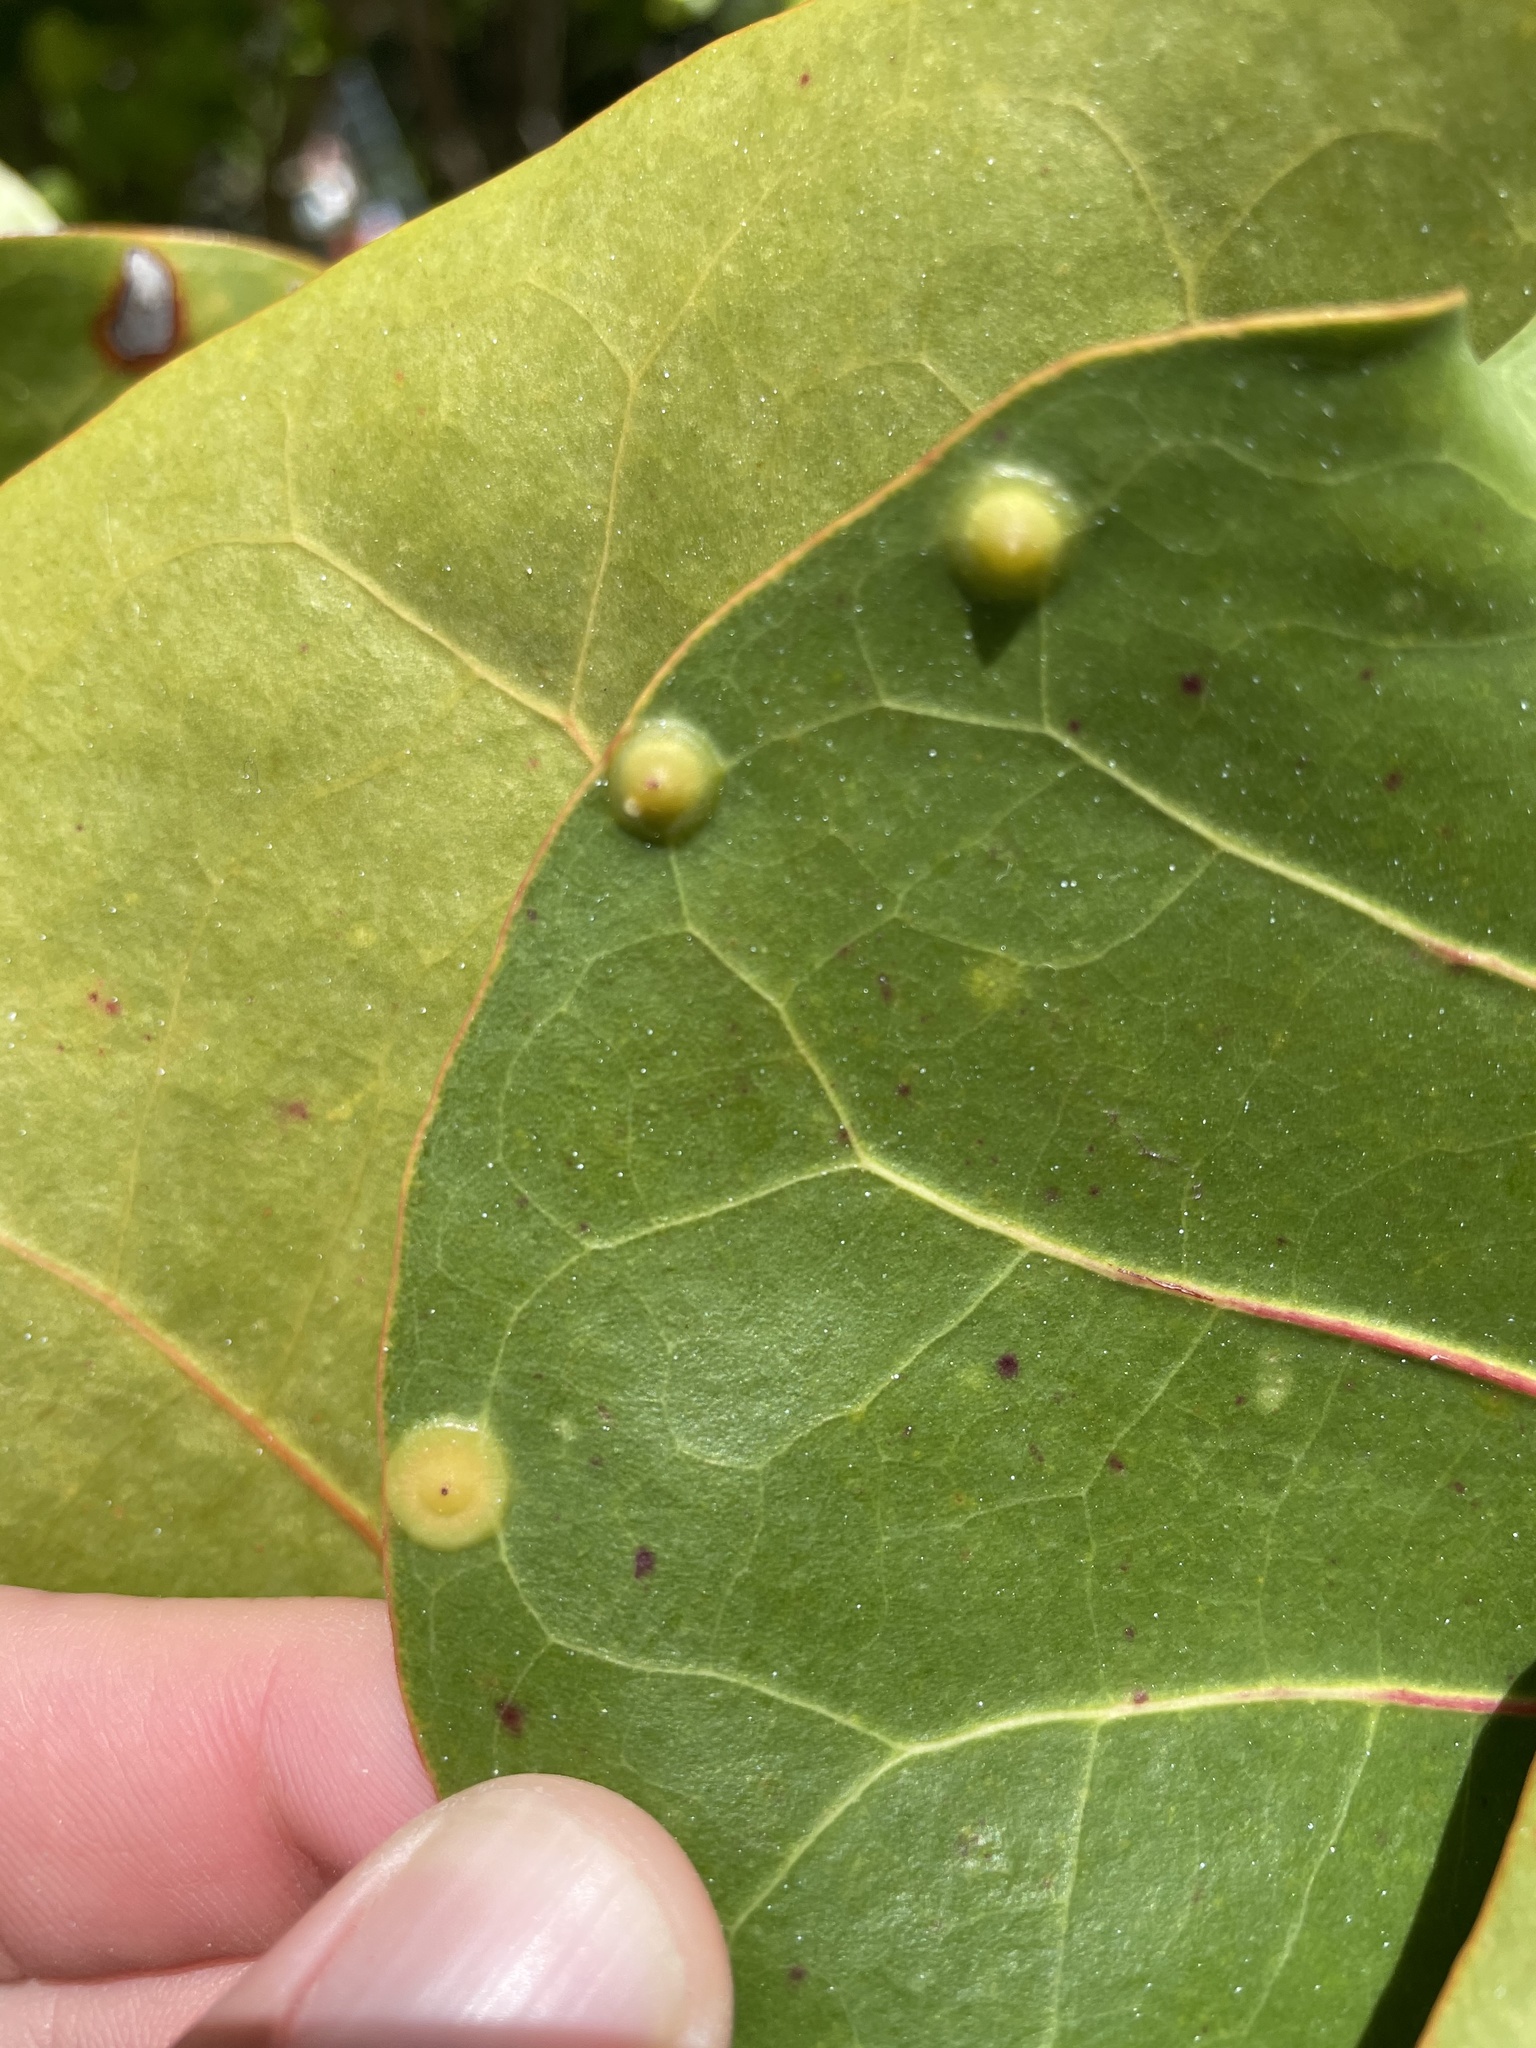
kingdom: Animalia
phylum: Arthropoda
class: Insecta
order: Diptera
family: Cecidomyiidae
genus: Ctenodactylomyia
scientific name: Ctenodactylomyia watsoni
